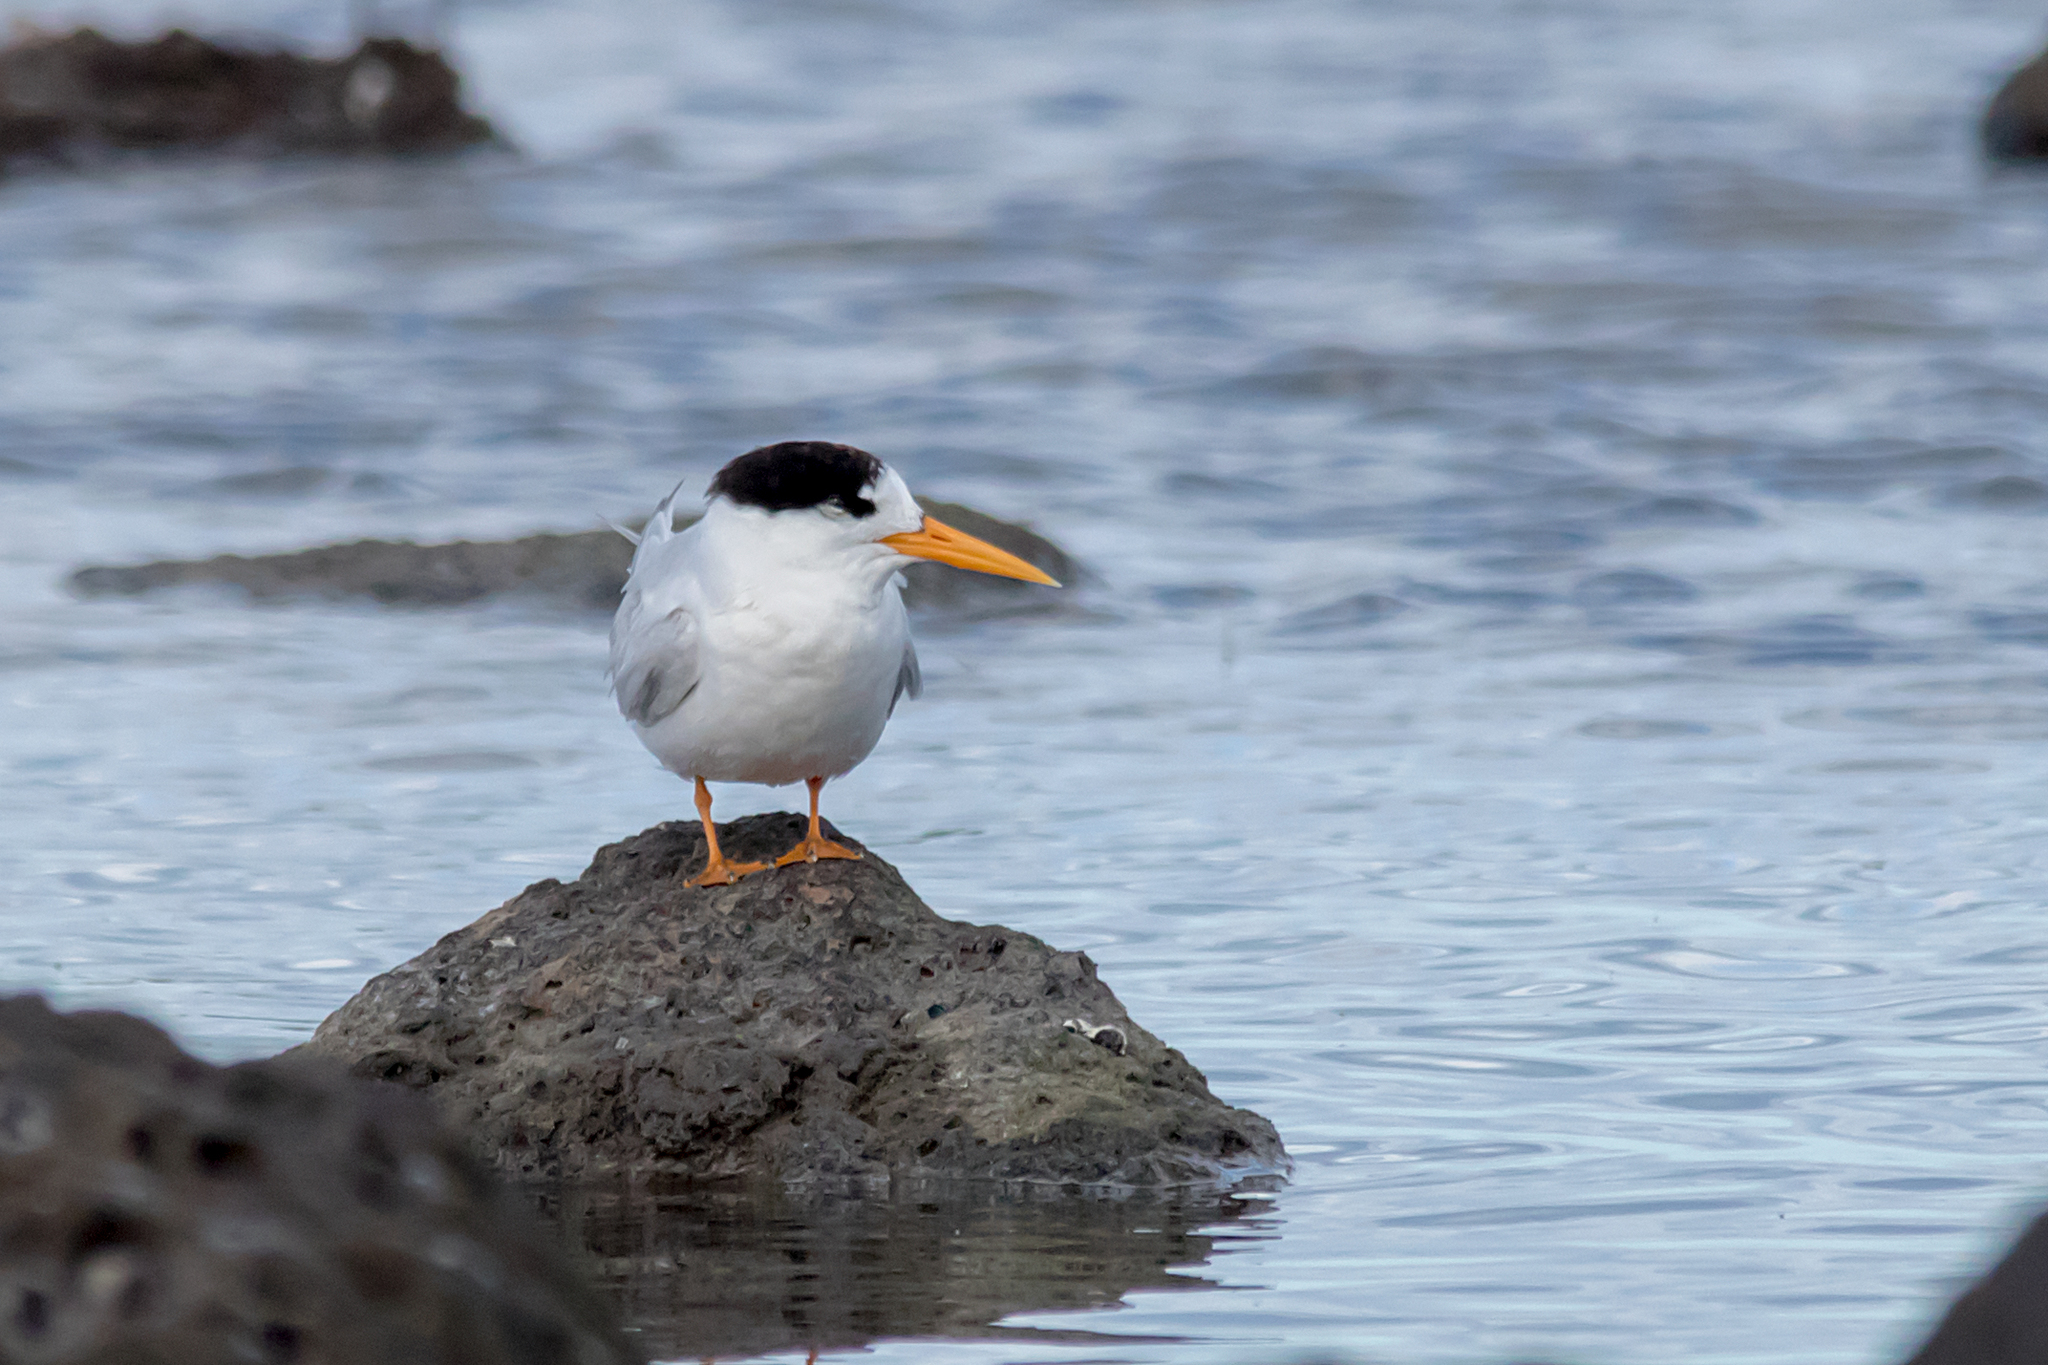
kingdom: Animalia
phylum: Chordata
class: Aves
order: Charadriiformes
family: Laridae
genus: Sternula
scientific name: Sternula nereis
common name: Fairy tern
